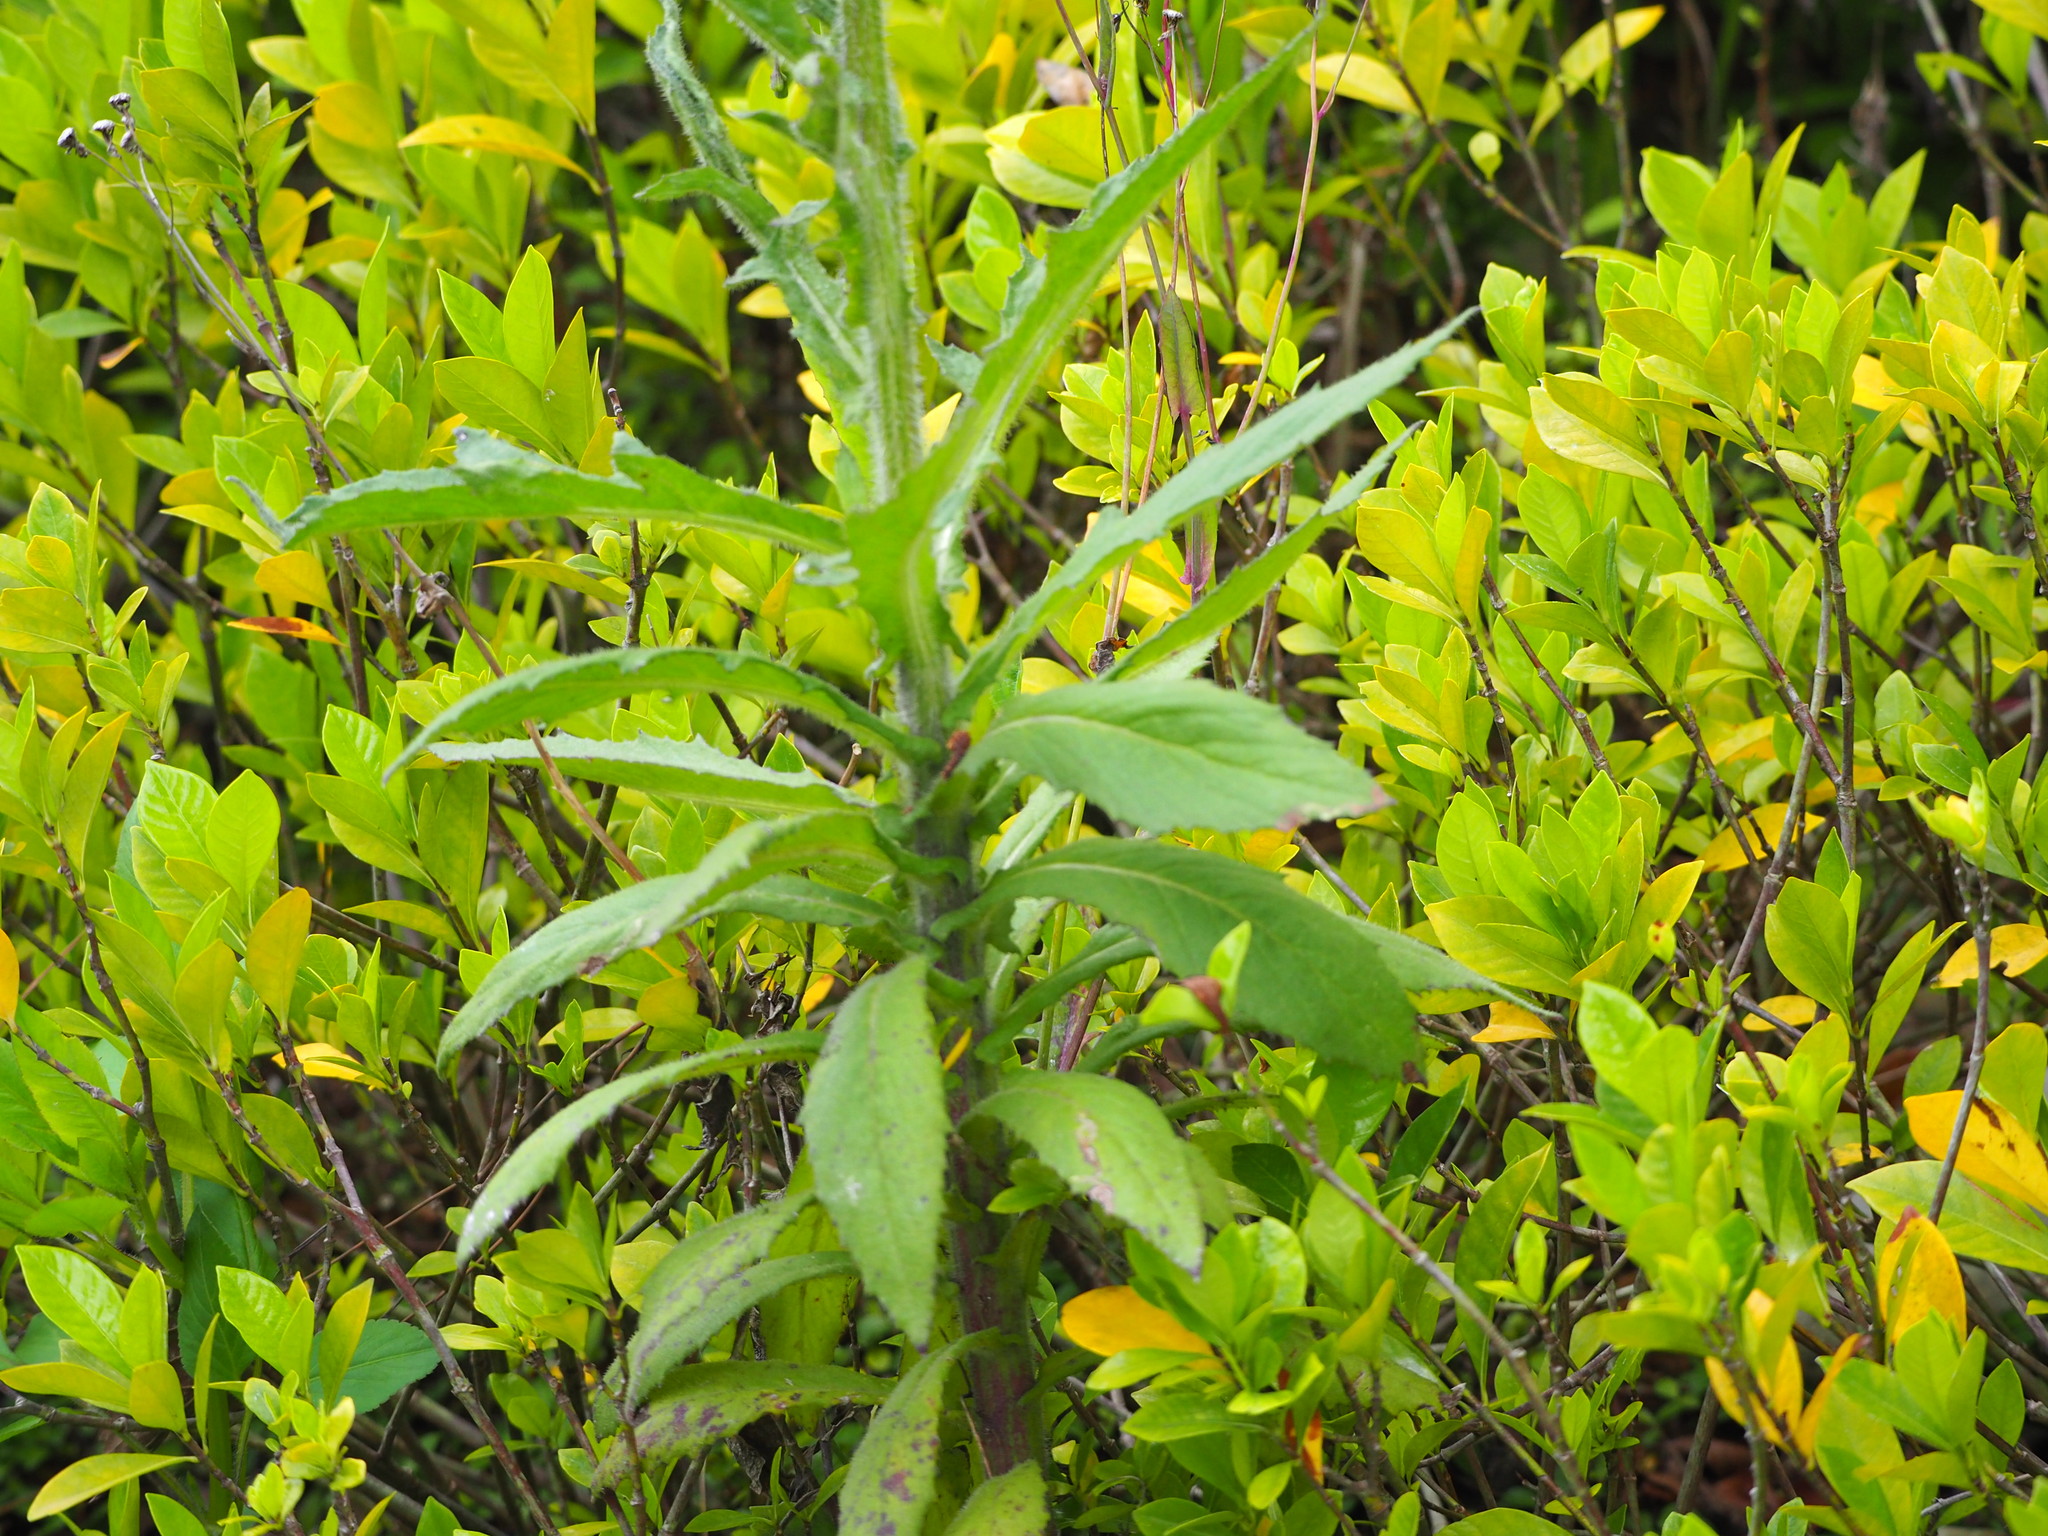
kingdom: Plantae
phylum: Tracheophyta
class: Magnoliopsida
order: Asterales
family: Asteraceae
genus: Erigeron
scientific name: Erigeron sumatrensis
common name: Daisy
